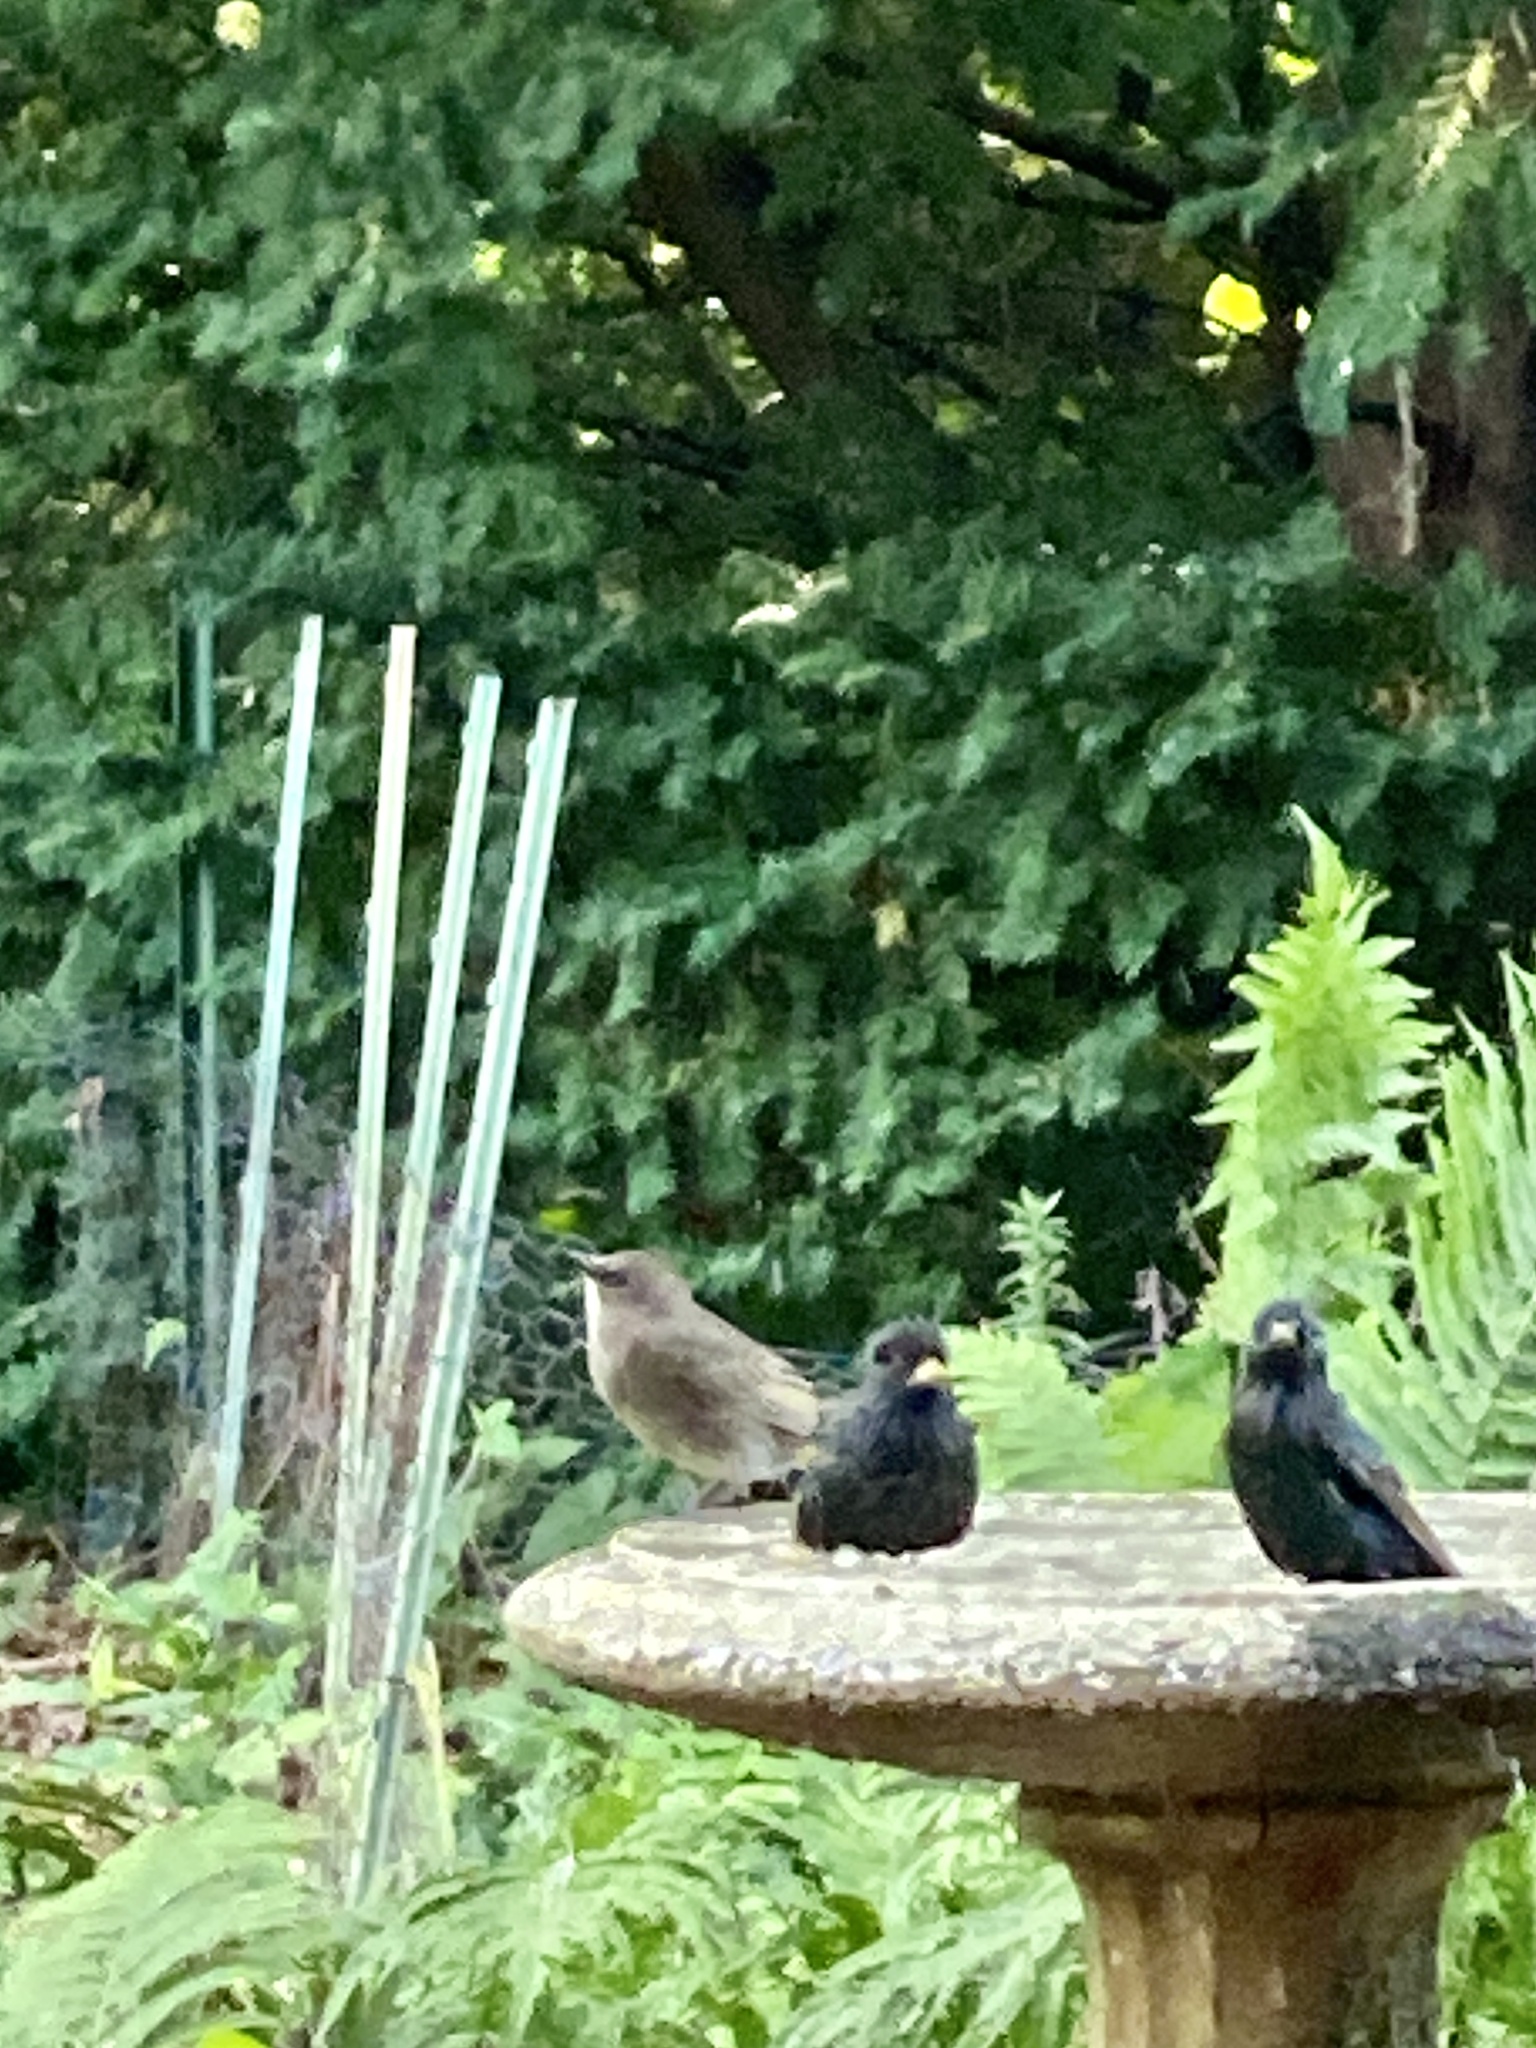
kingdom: Animalia
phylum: Chordata
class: Aves
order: Passeriformes
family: Sturnidae
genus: Sturnus
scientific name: Sturnus vulgaris
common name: Common starling
